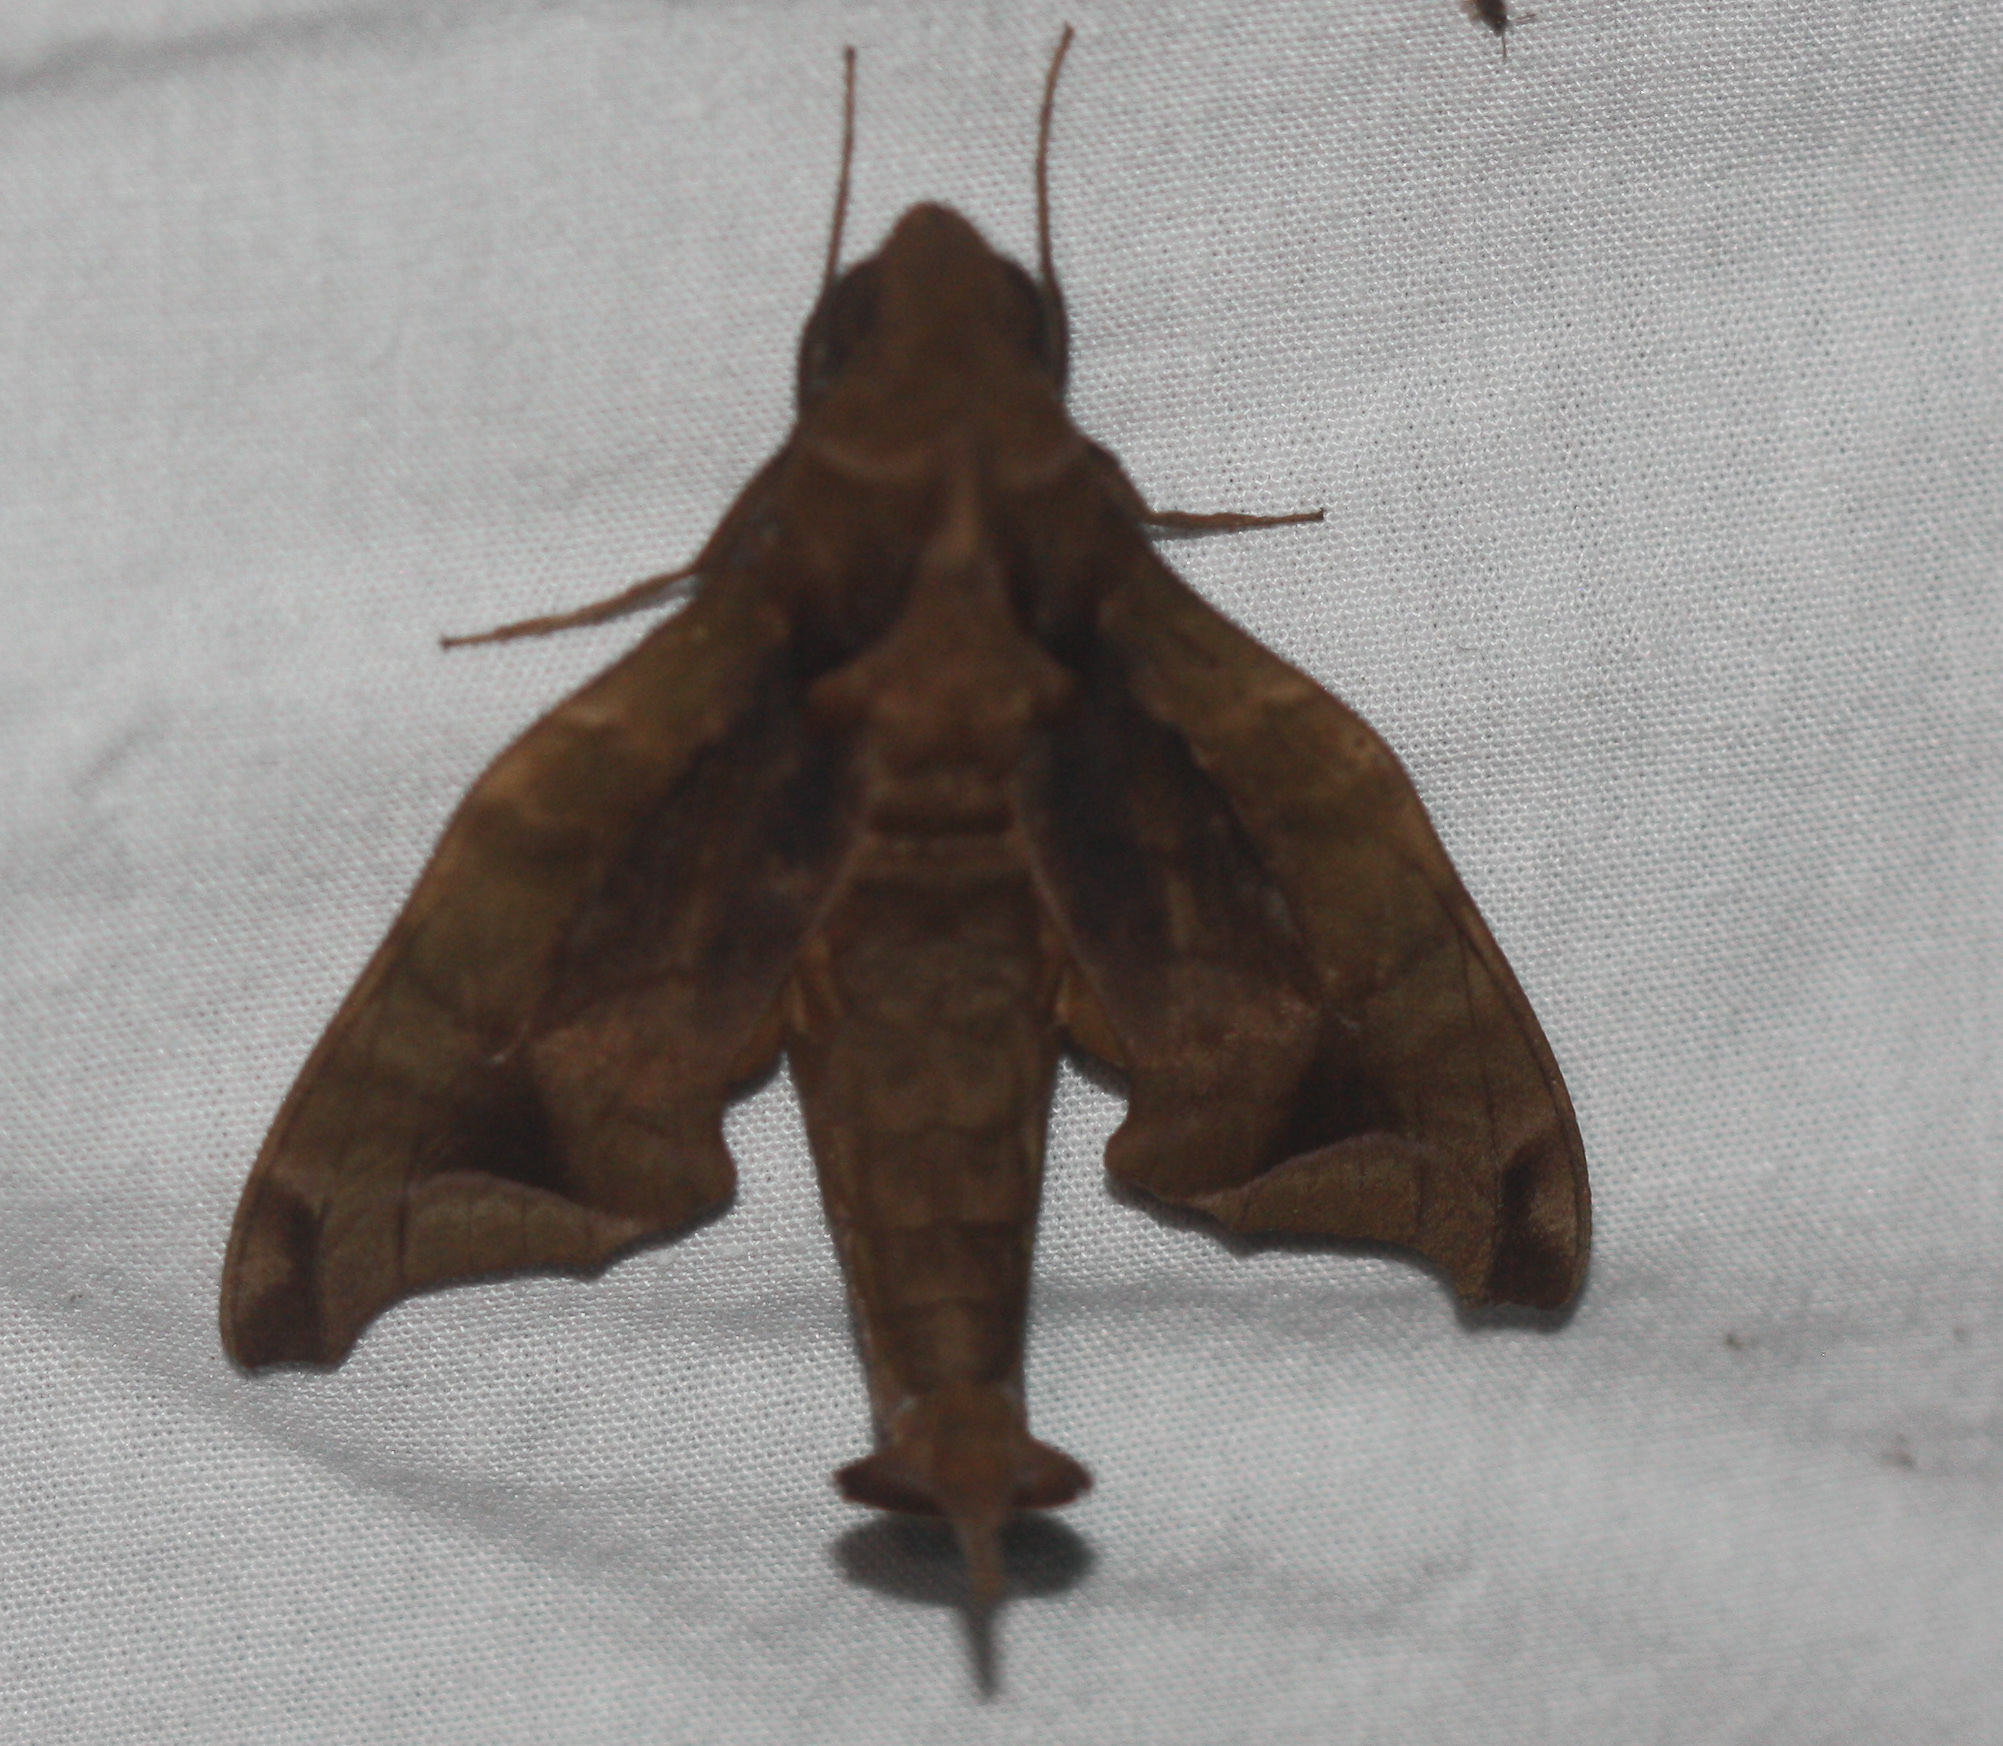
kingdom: Animalia
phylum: Arthropoda
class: Insecta
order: Lepidoptera
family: Sphingidae
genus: Enyo
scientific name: Enyo gorgon
